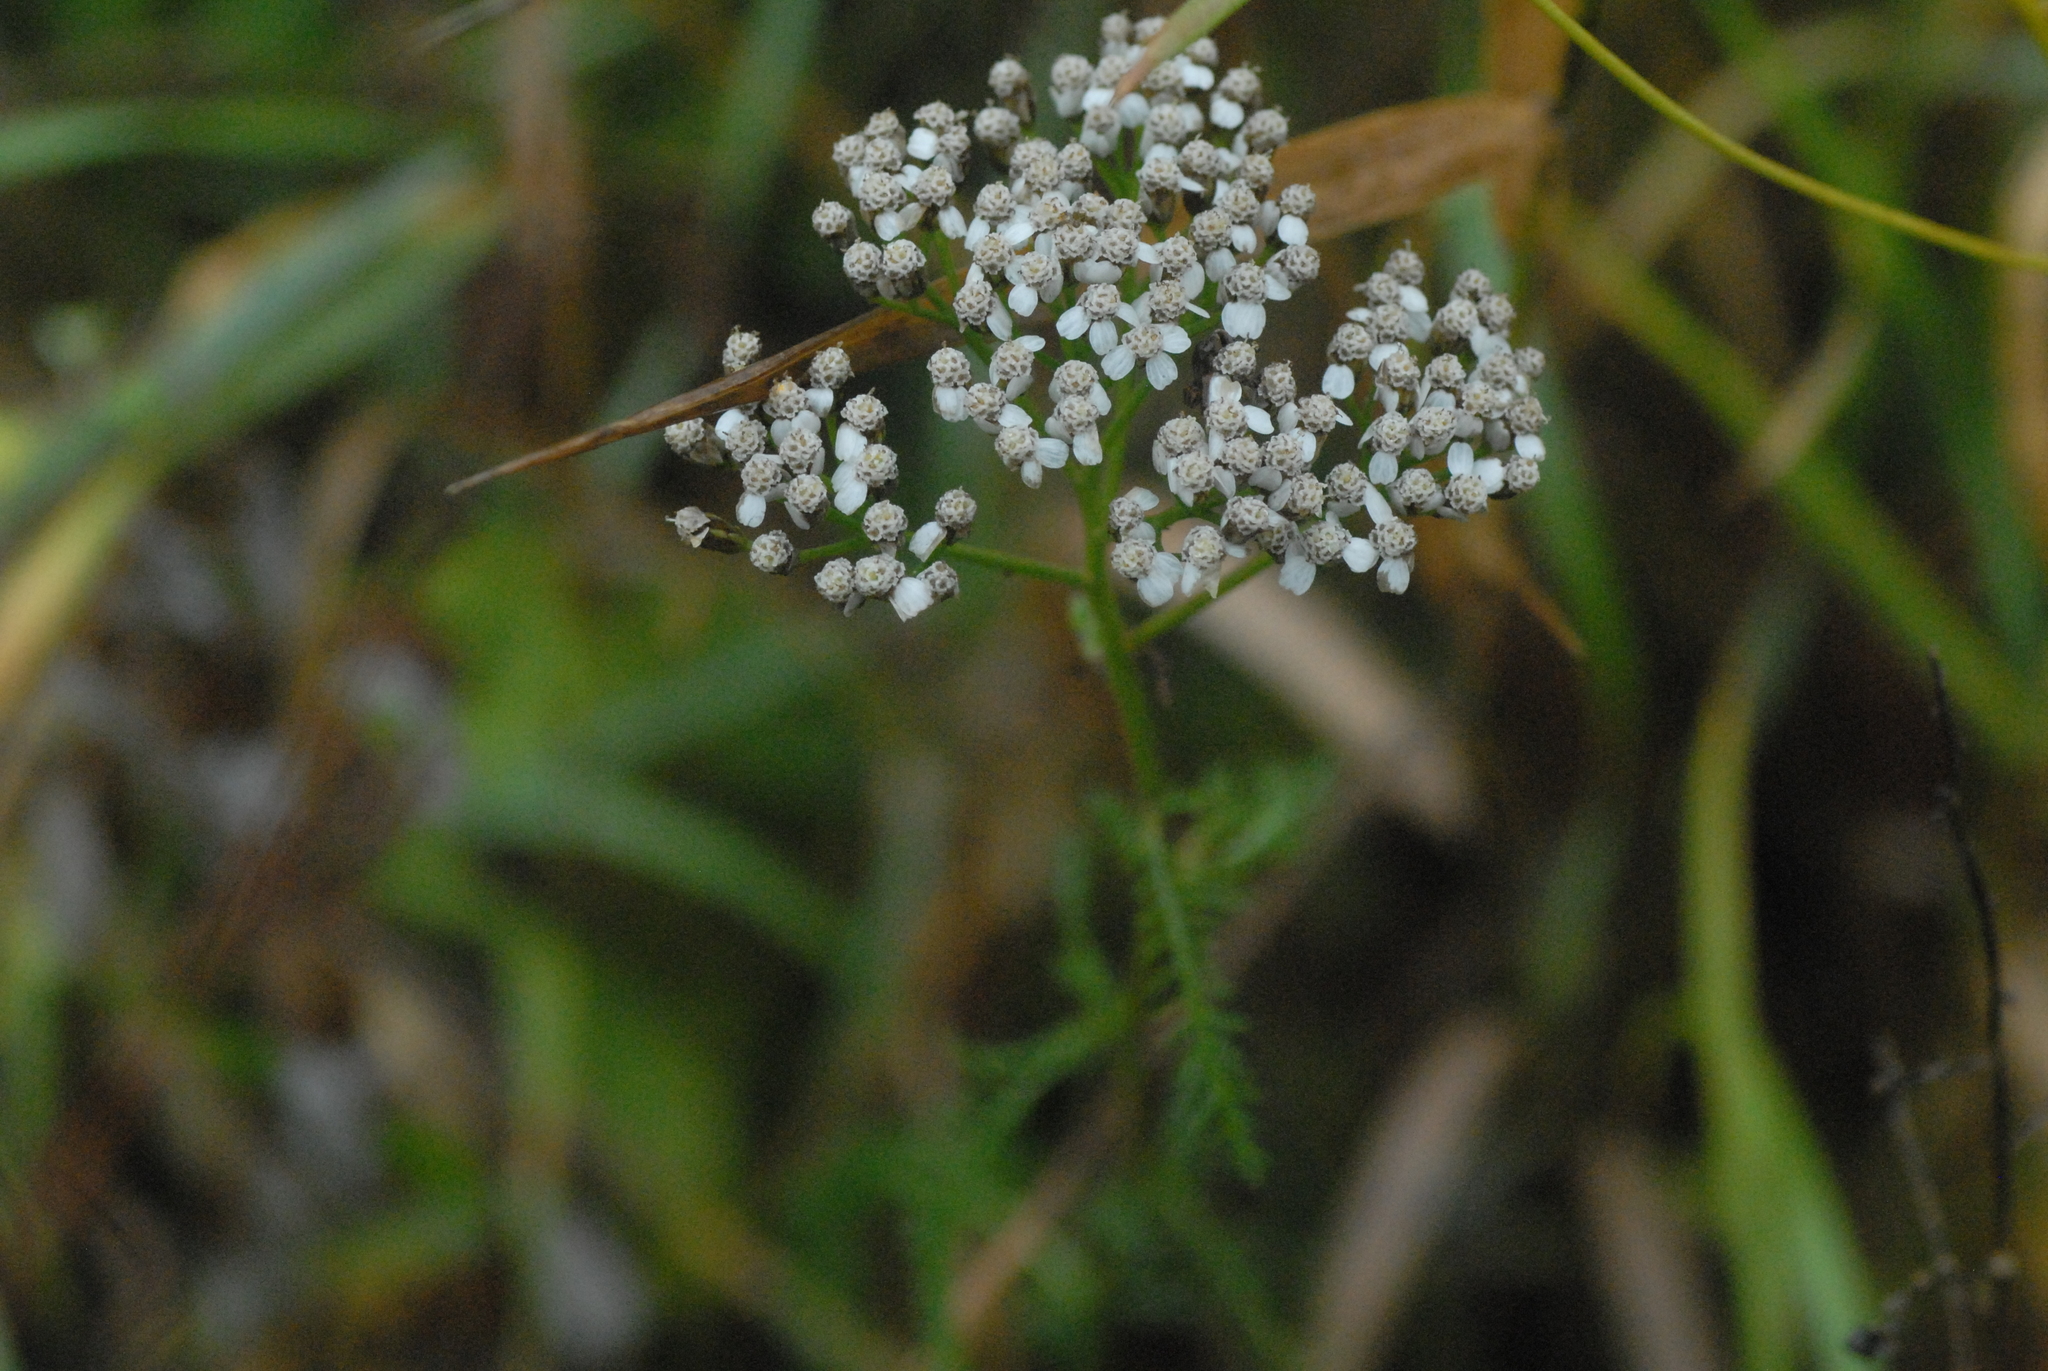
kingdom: Plantae
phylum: Tracheophyta
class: Magnoliopsida
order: Asterales
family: Asteraceae
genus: Achillea
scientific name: Achillea millefolium
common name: Yarrow
